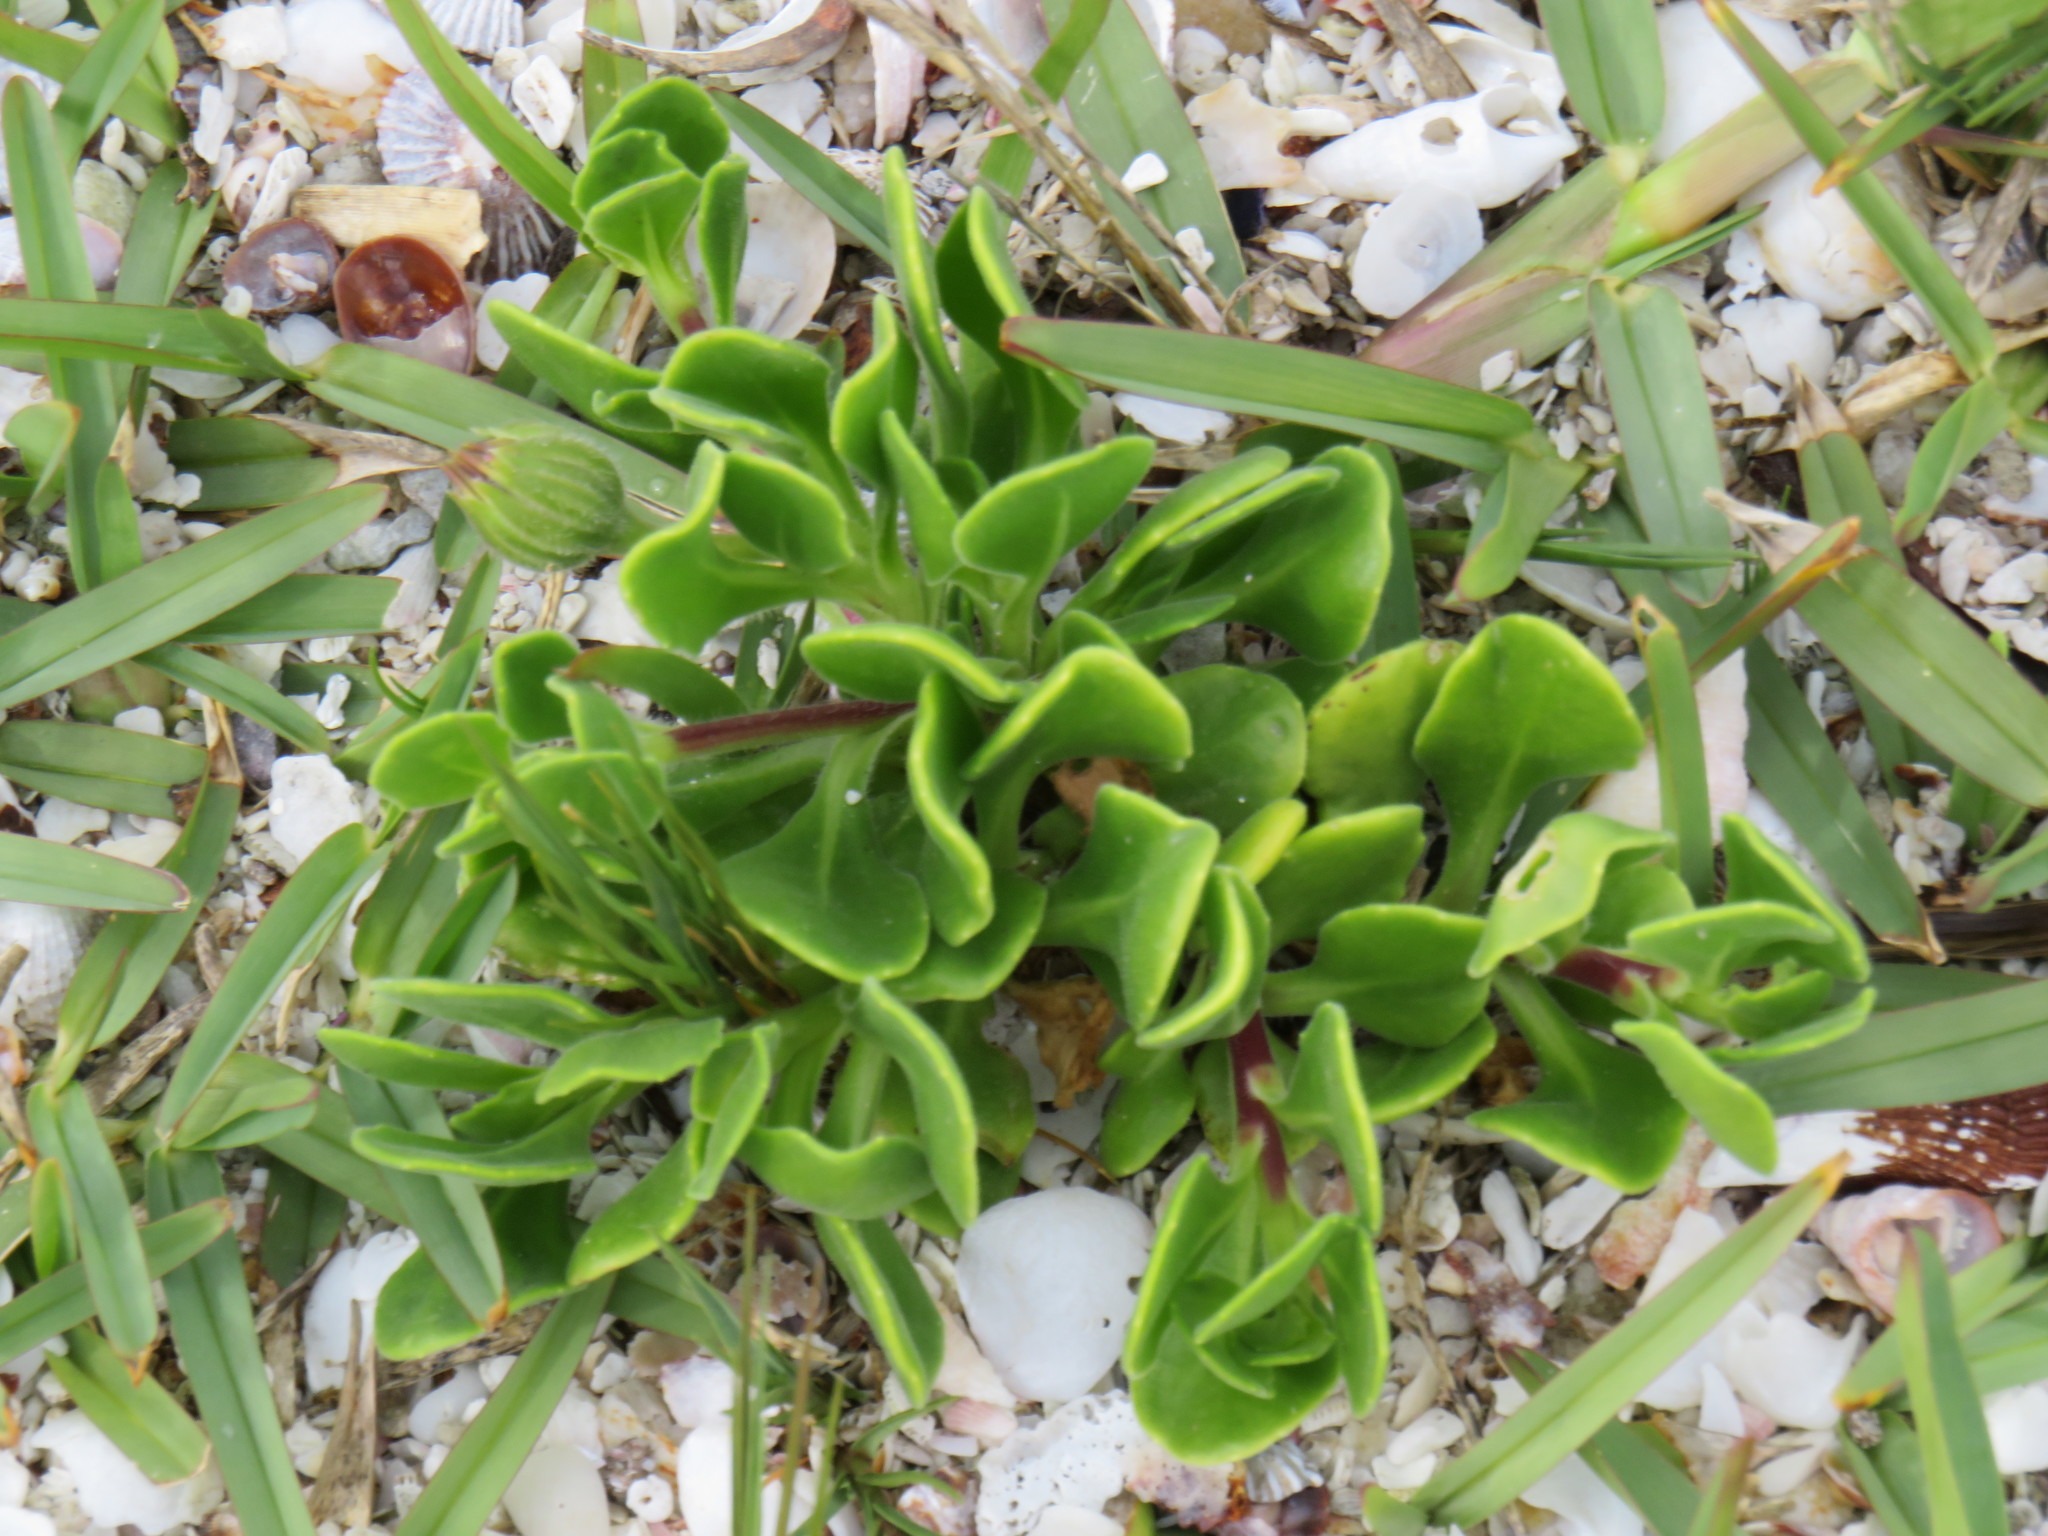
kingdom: Plantae
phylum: Tracheophyta
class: Magnoliopsida
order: Asterales
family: Asteraceae
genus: Dimorphotheca
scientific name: Dimorphotheca fruticosa
